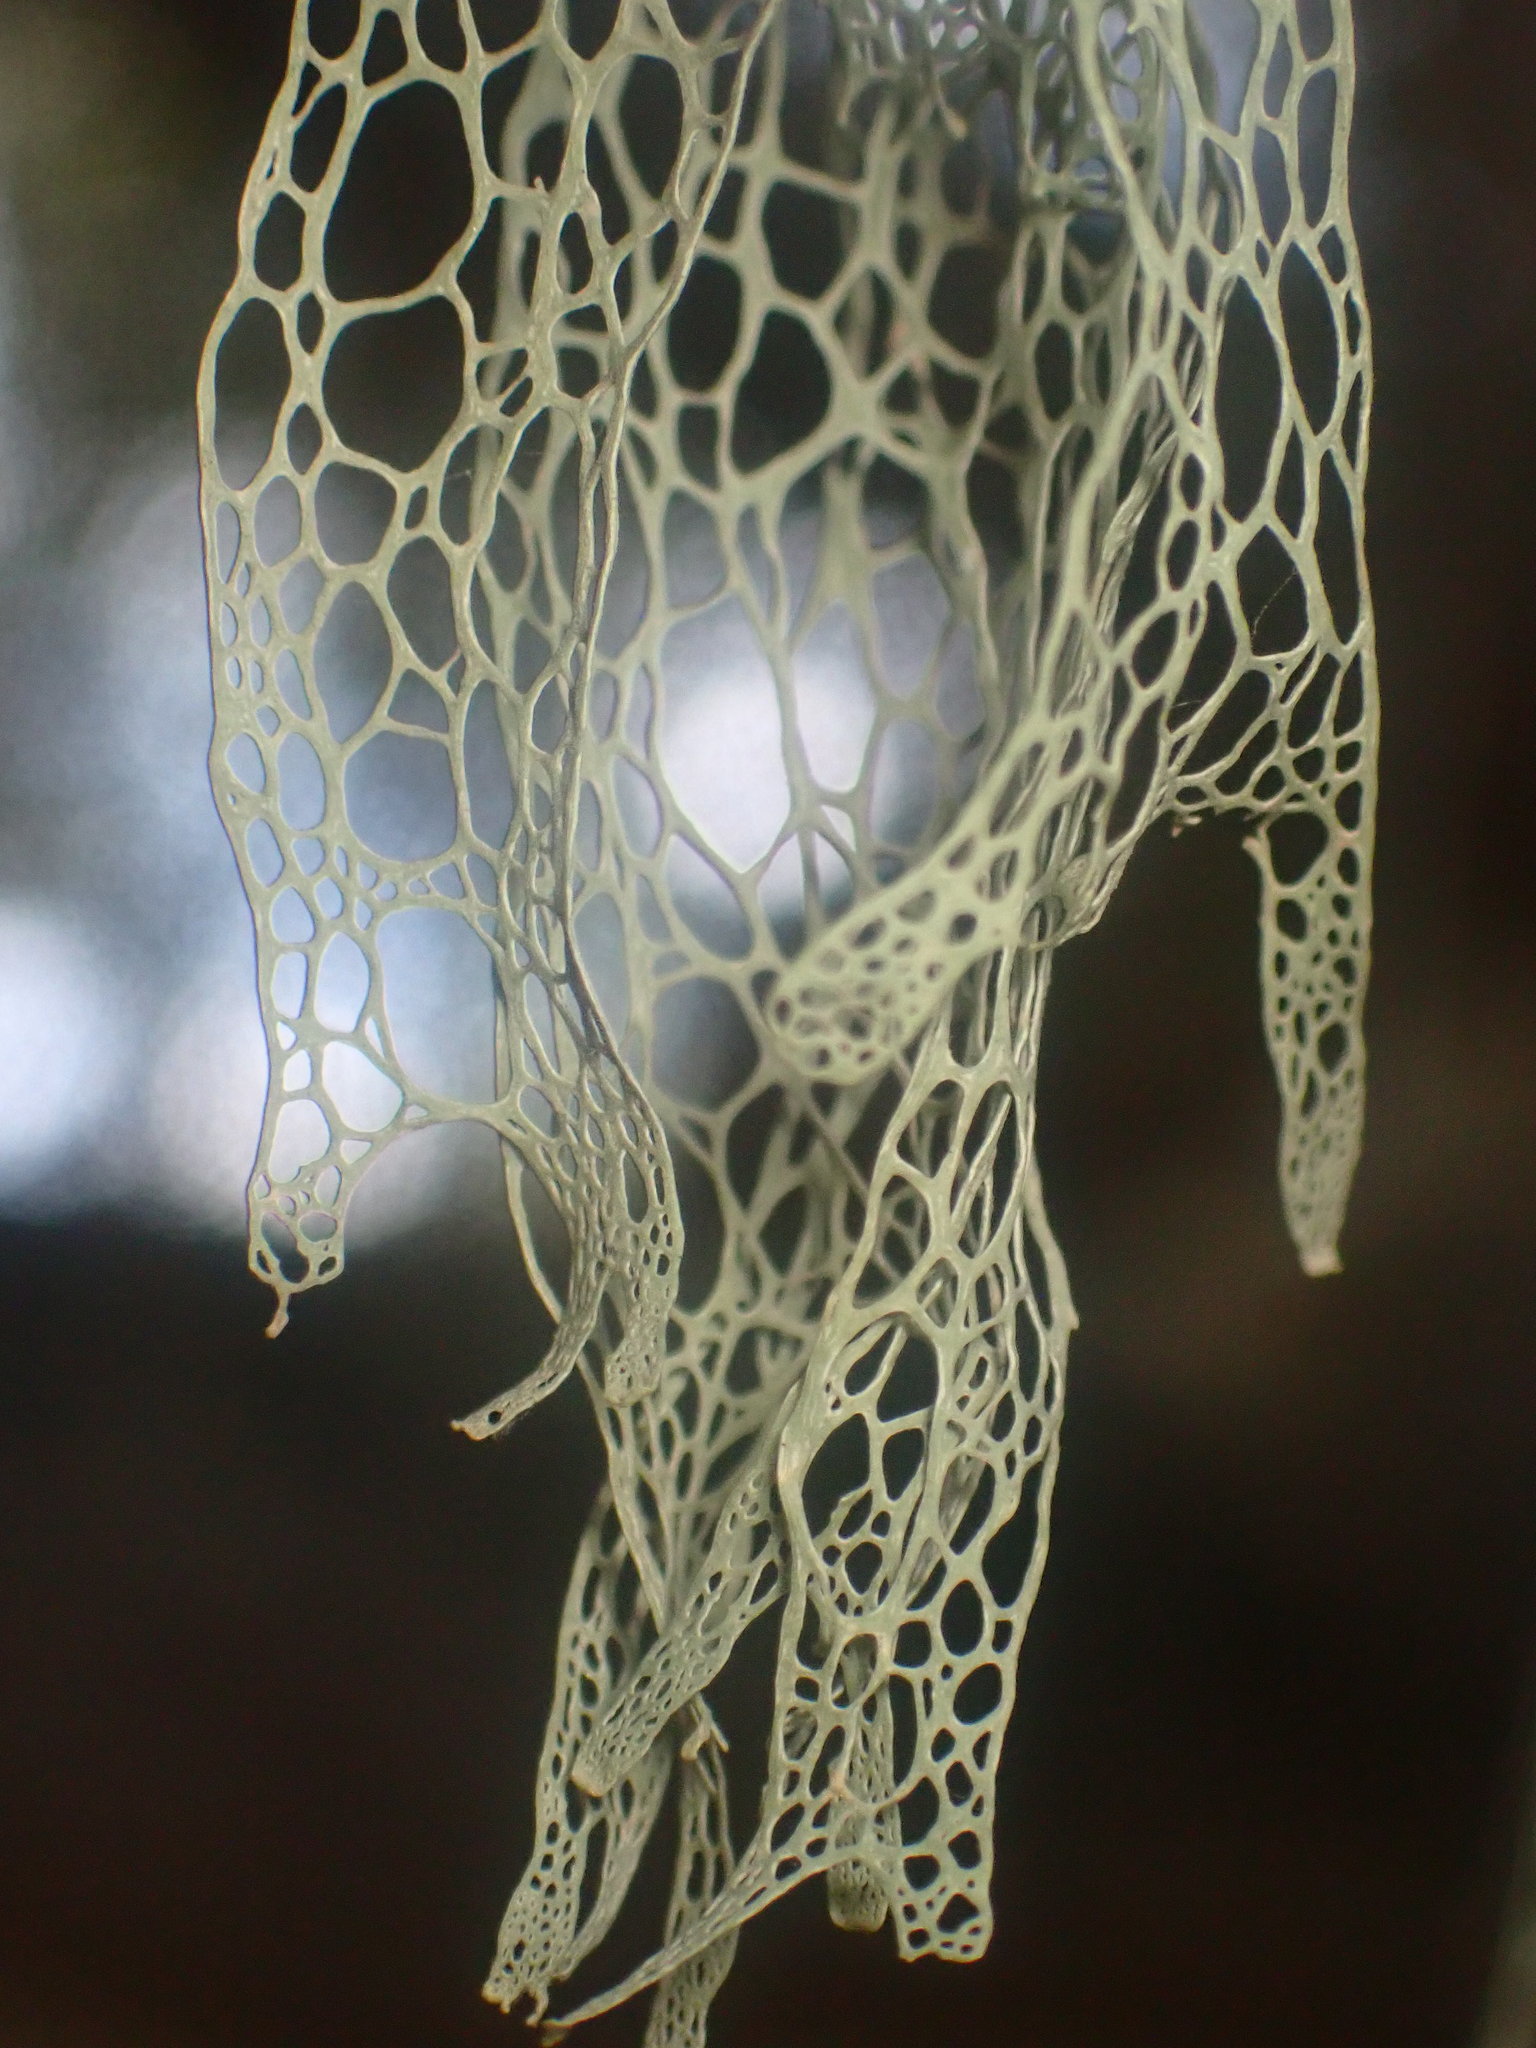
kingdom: Fungi
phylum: Ascomycota
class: Lecanoromycetes
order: Lecanorales
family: Ramalinaceae
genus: Ramalina
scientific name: Ramalina menziesii
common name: Lace lichen
